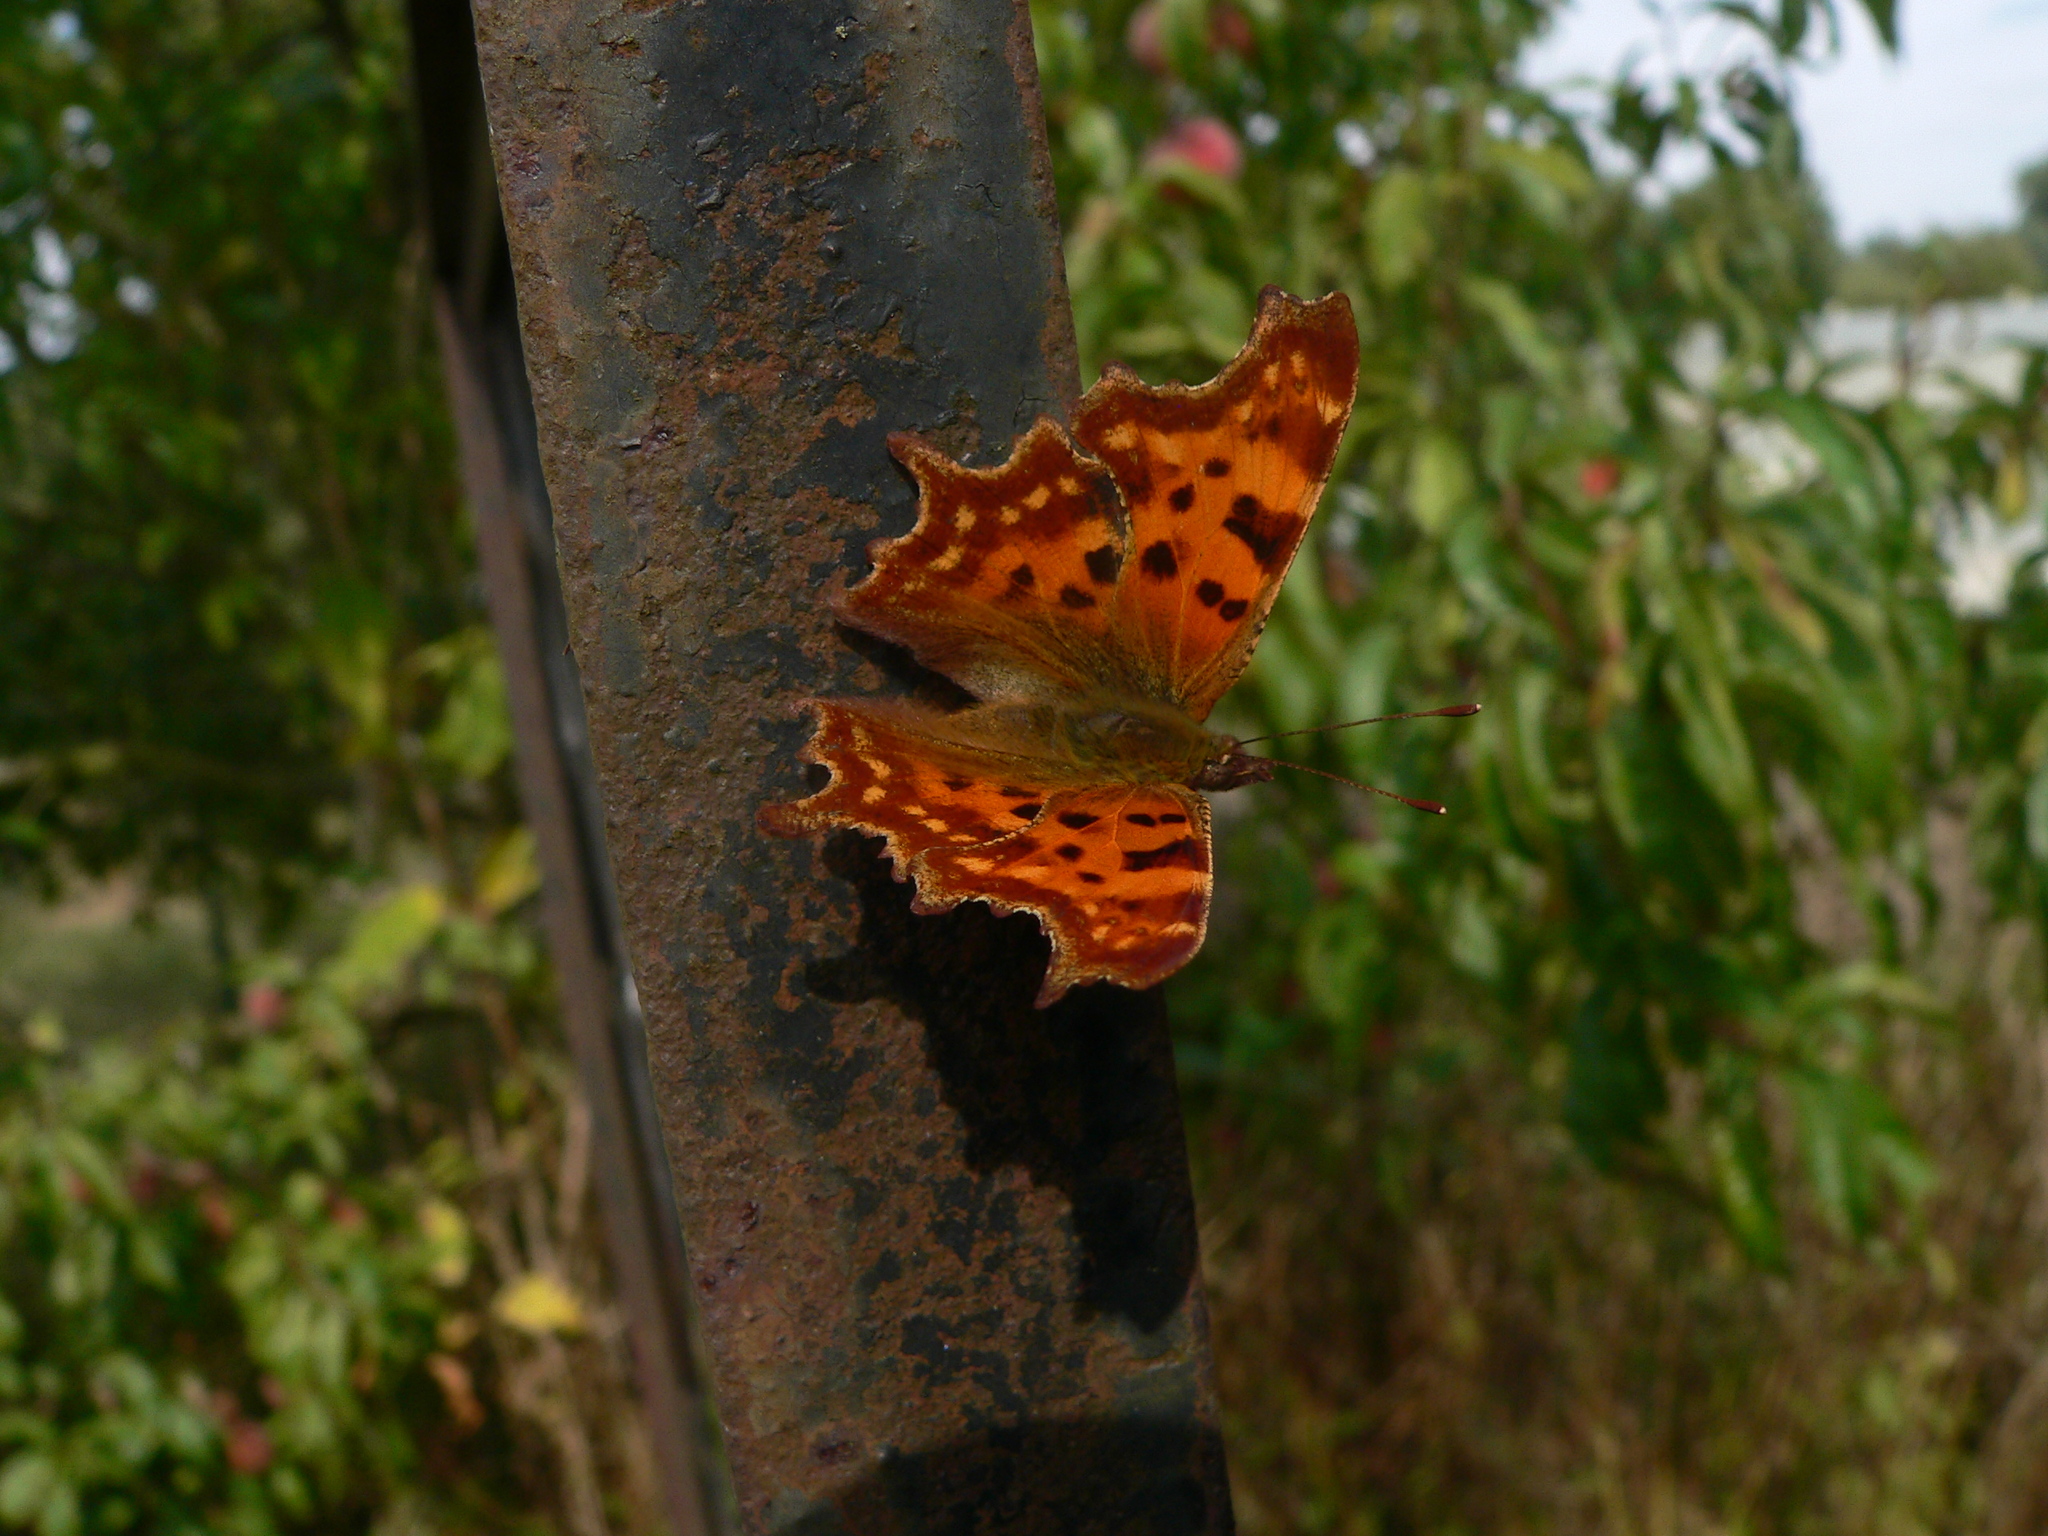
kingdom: Animalia
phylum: Arthropoda
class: Insecta
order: Lepidoptera
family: Nymphalidae
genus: Polygonia
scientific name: Polygonia c-album
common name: Comma
